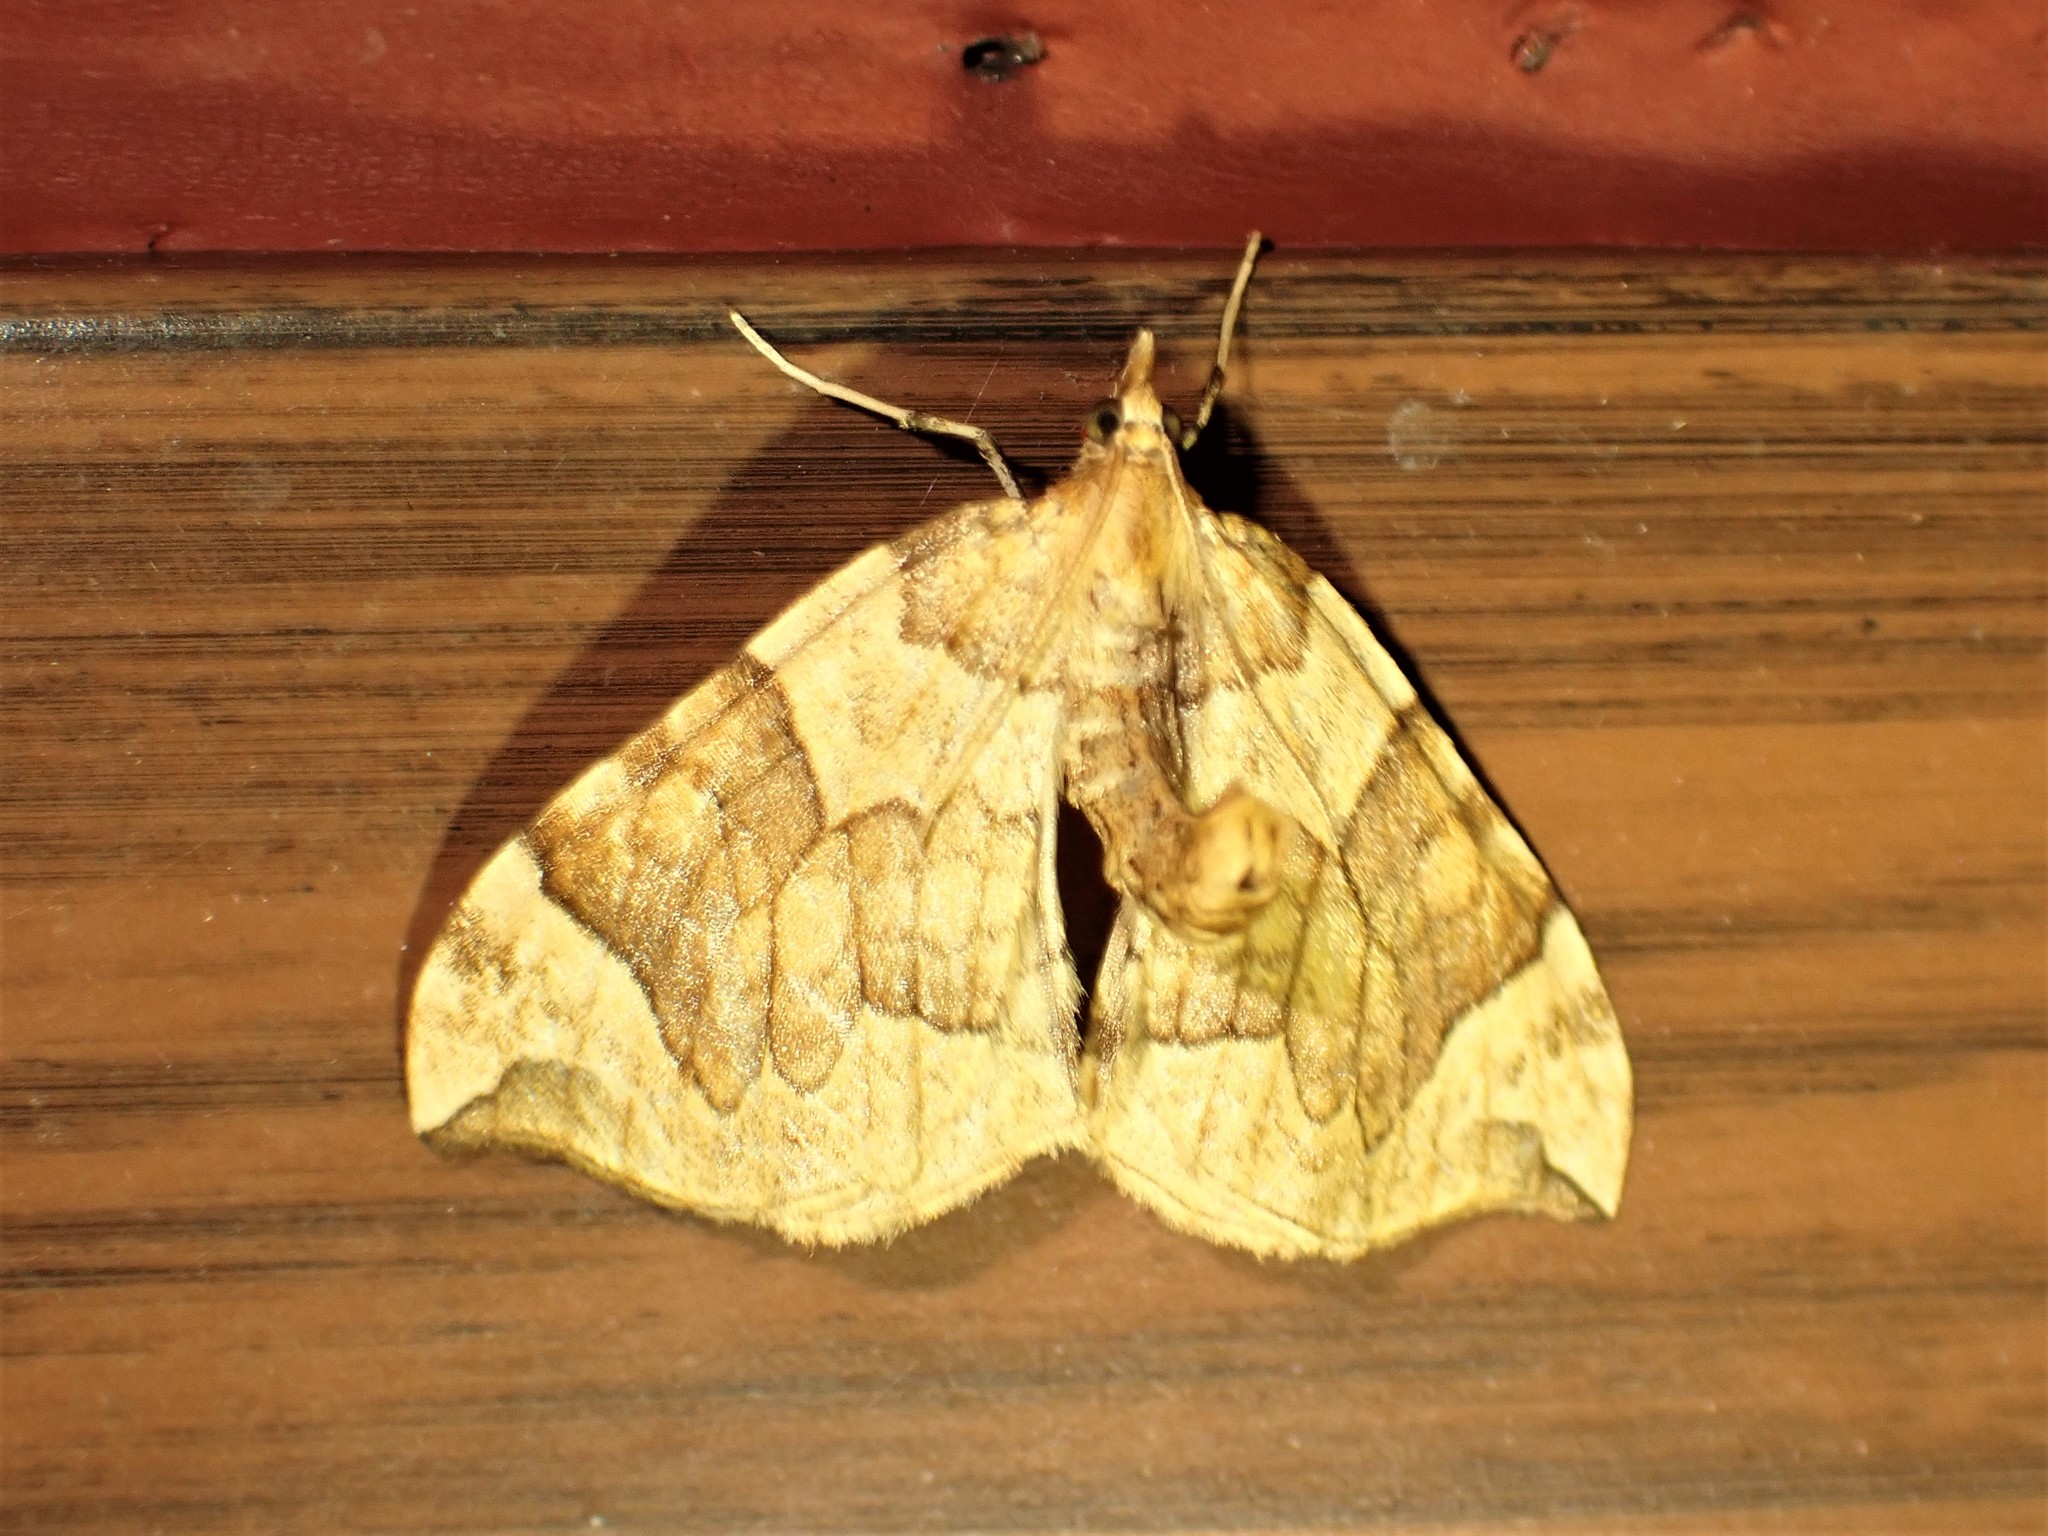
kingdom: Animalia
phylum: Arthropoda
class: Insecta
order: Lepidoptera
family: Geometridae
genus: Eulithis
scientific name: Eulithis propulsata
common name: Currant eulithis moth
